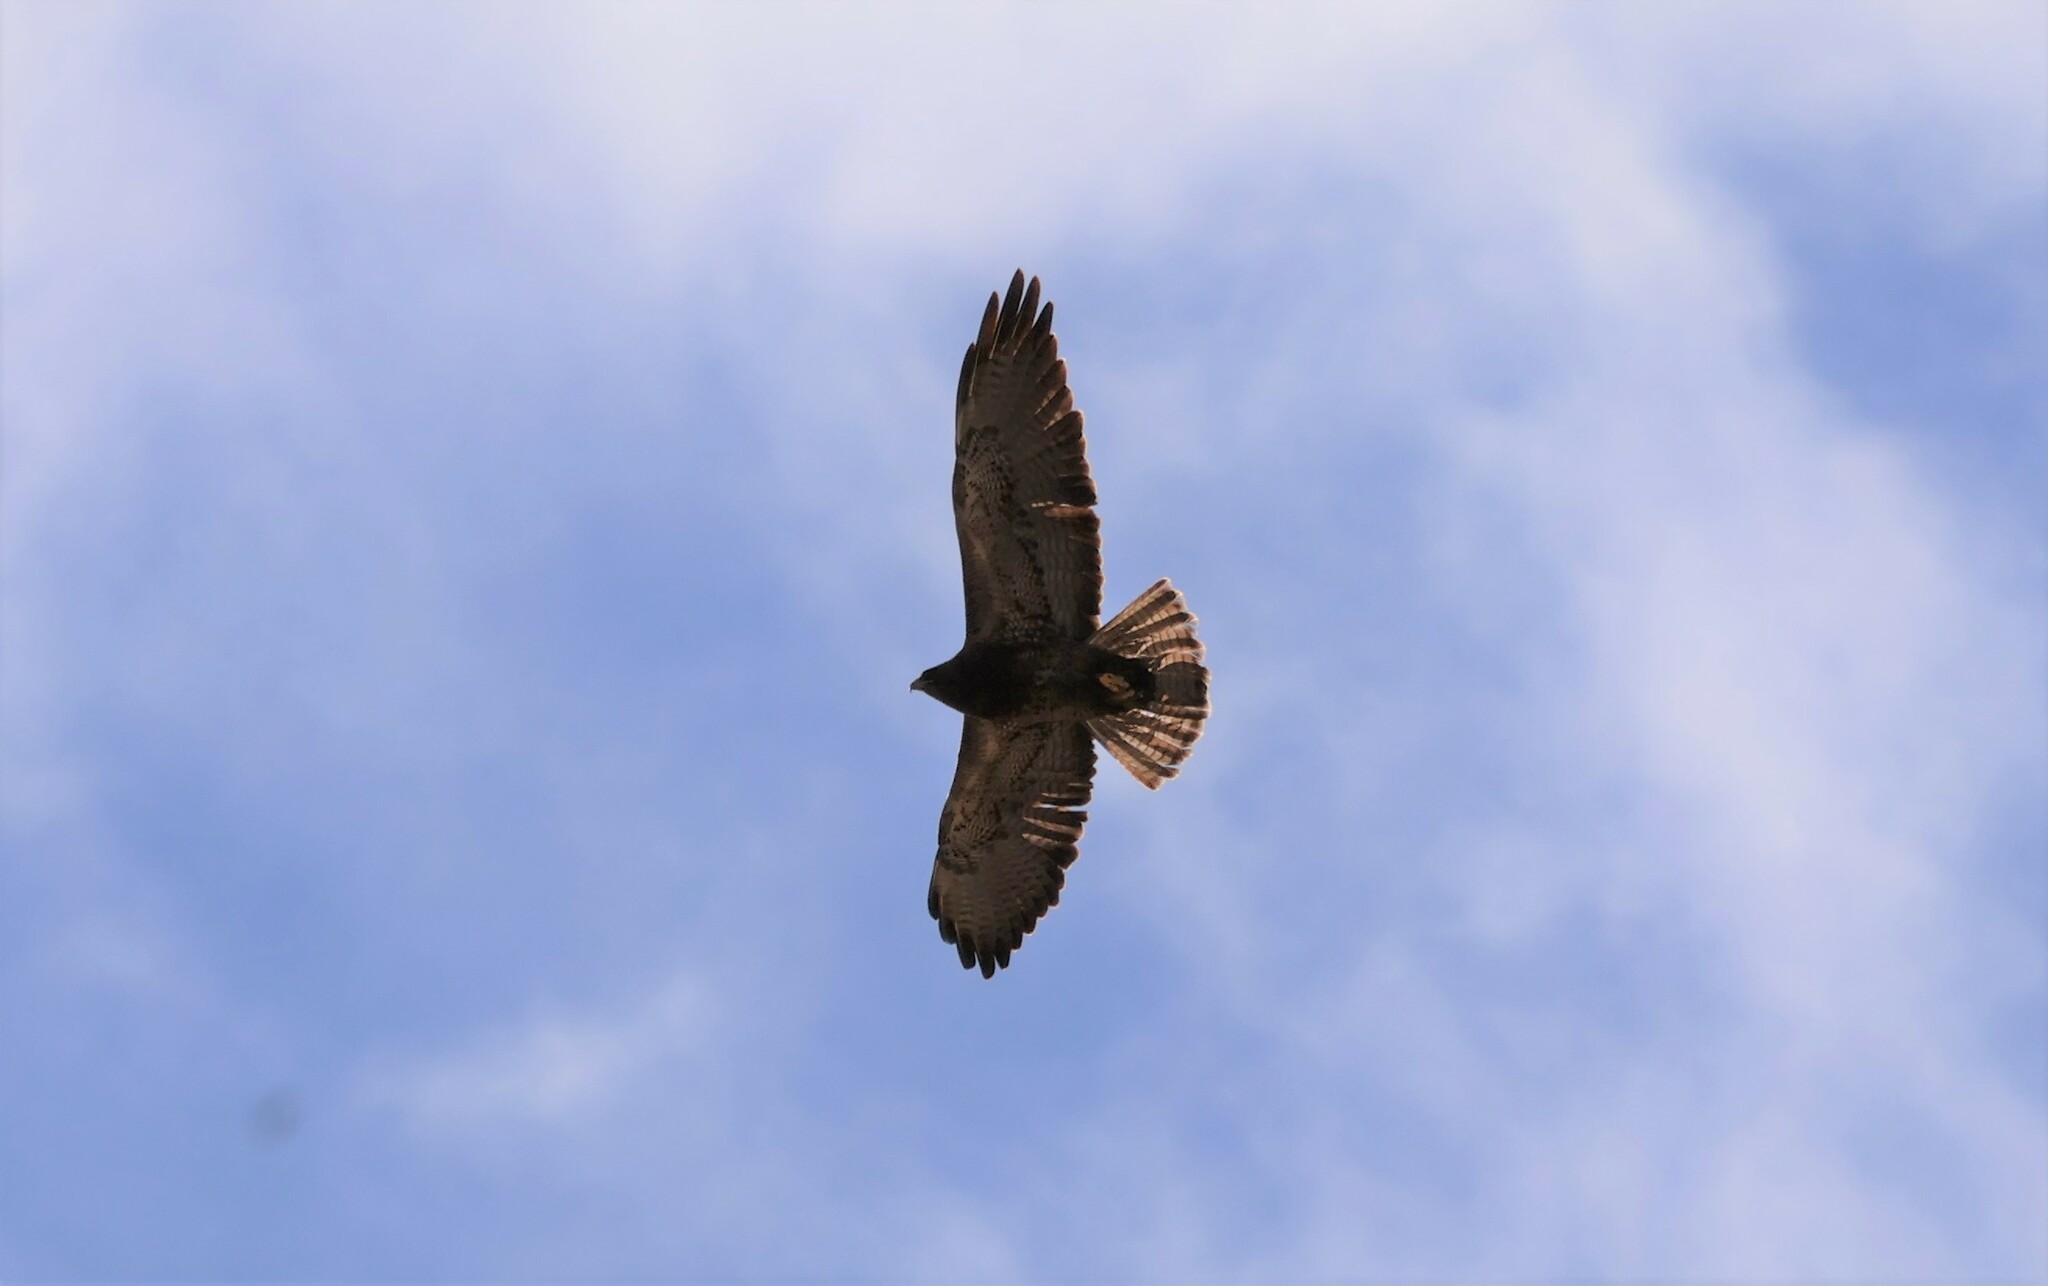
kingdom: Animalia
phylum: Chordata
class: Aves
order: Accipitriformes
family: Accipitridae
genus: Buteo
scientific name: Buteo swainsoni
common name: Swainson's hawk
